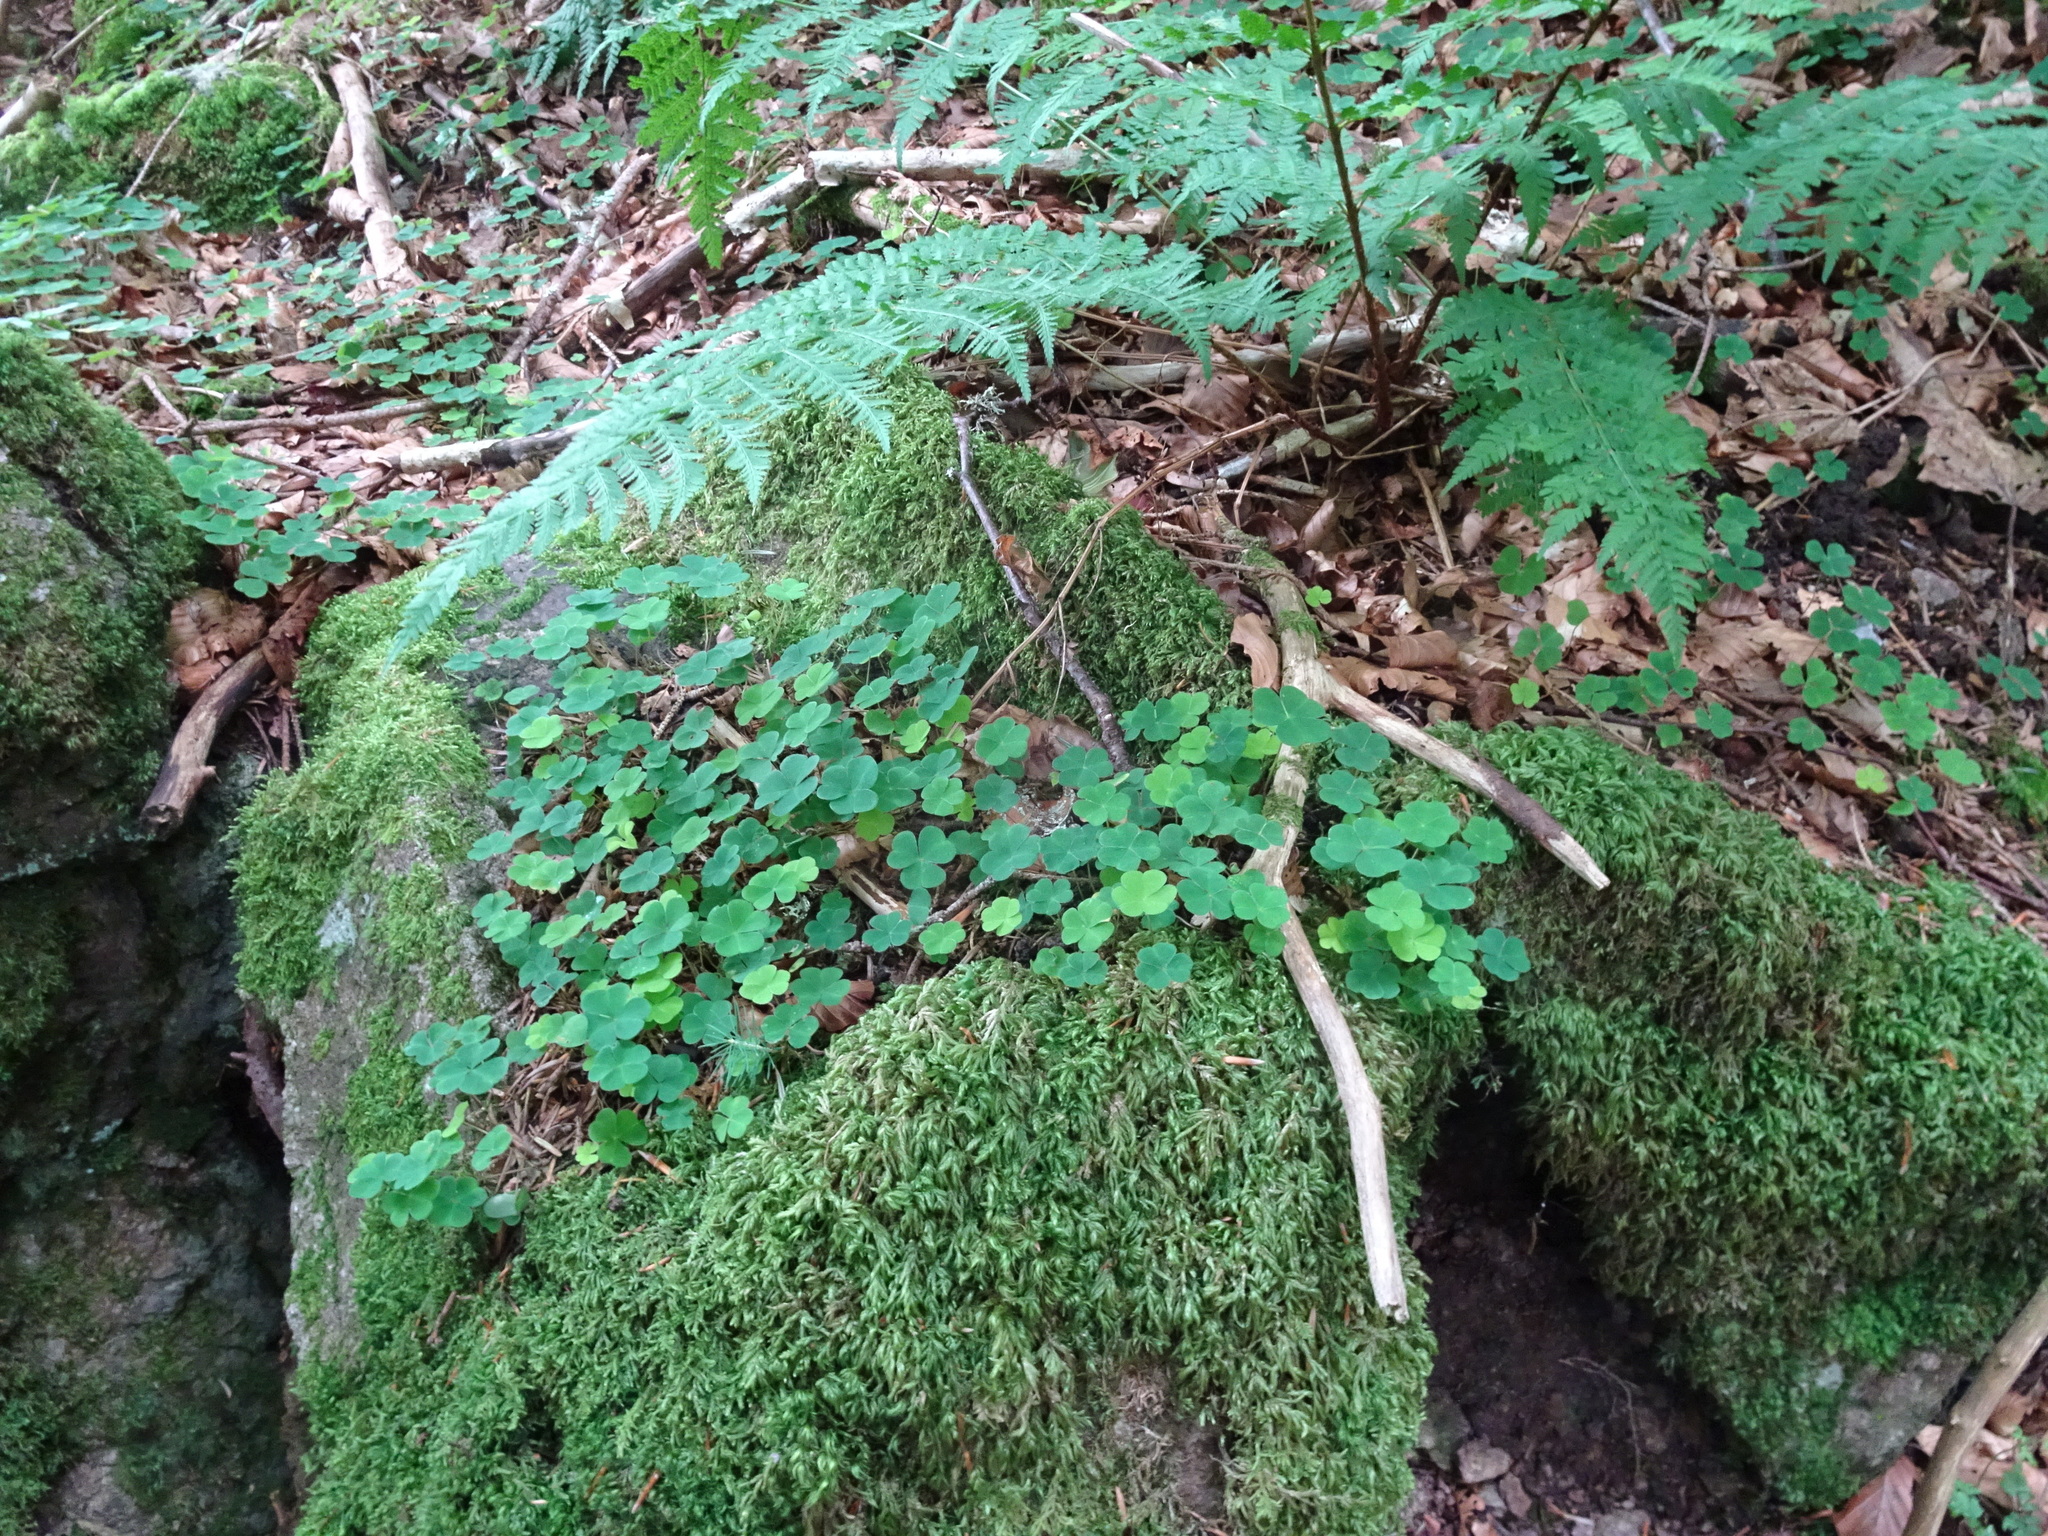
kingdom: Plantae
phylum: Tracheophyta
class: Magnoliopsida
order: Oxalidales
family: Oxalidaceae
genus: Oxalis
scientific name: Oxalis acetosella
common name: Wood-sorrel
